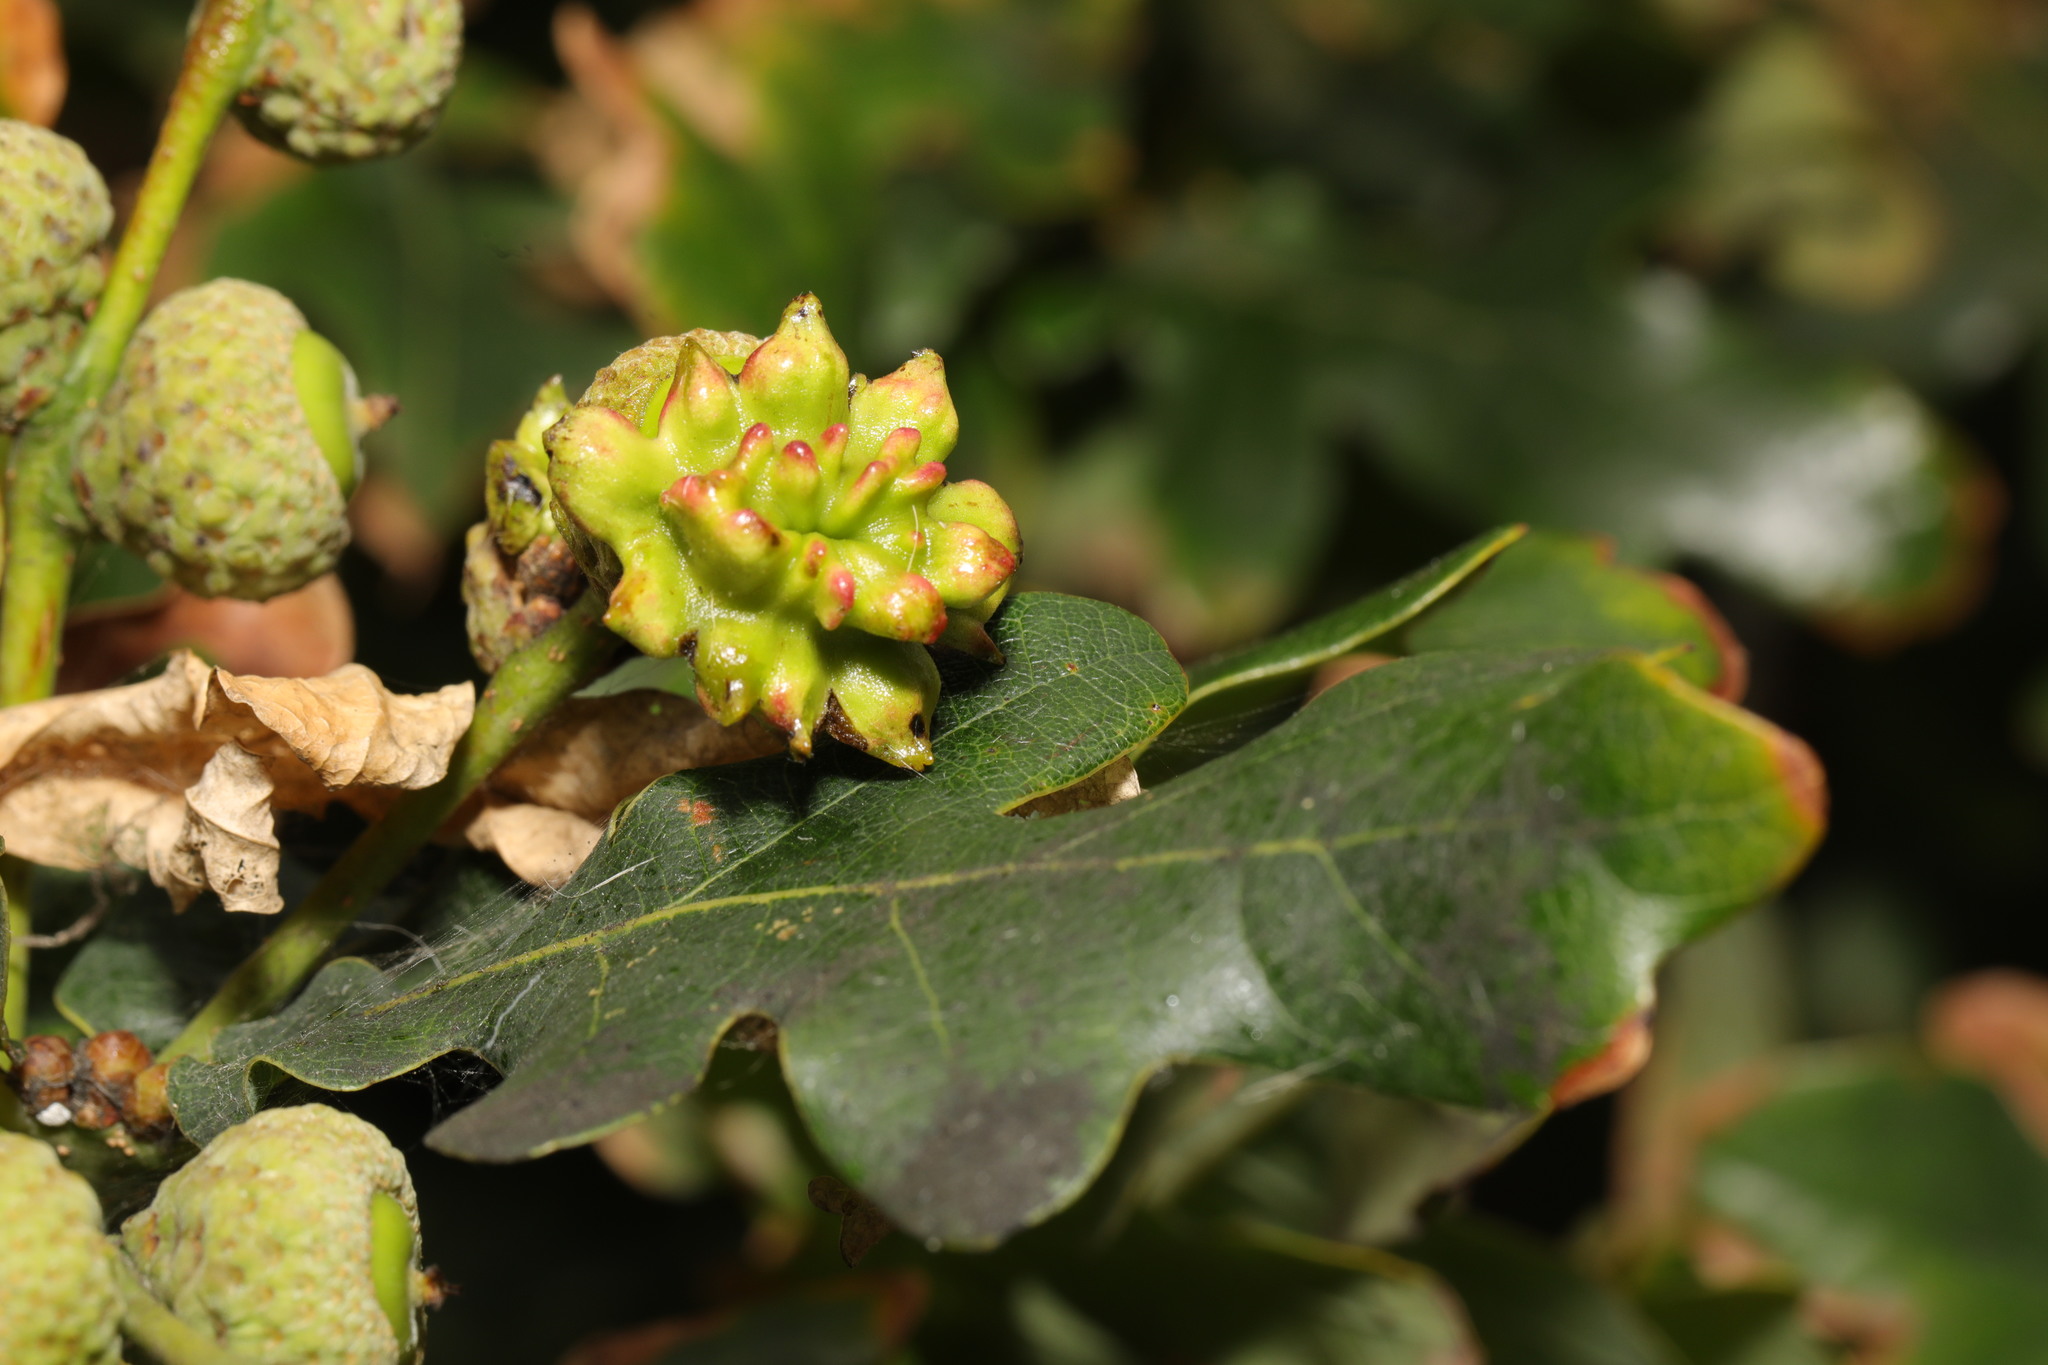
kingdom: Animalia
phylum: Arthropoda
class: Insecta
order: Hymenoptera
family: Cynipidae
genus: Andricus
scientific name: Andricus quercuscalicis
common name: Knopper gall
